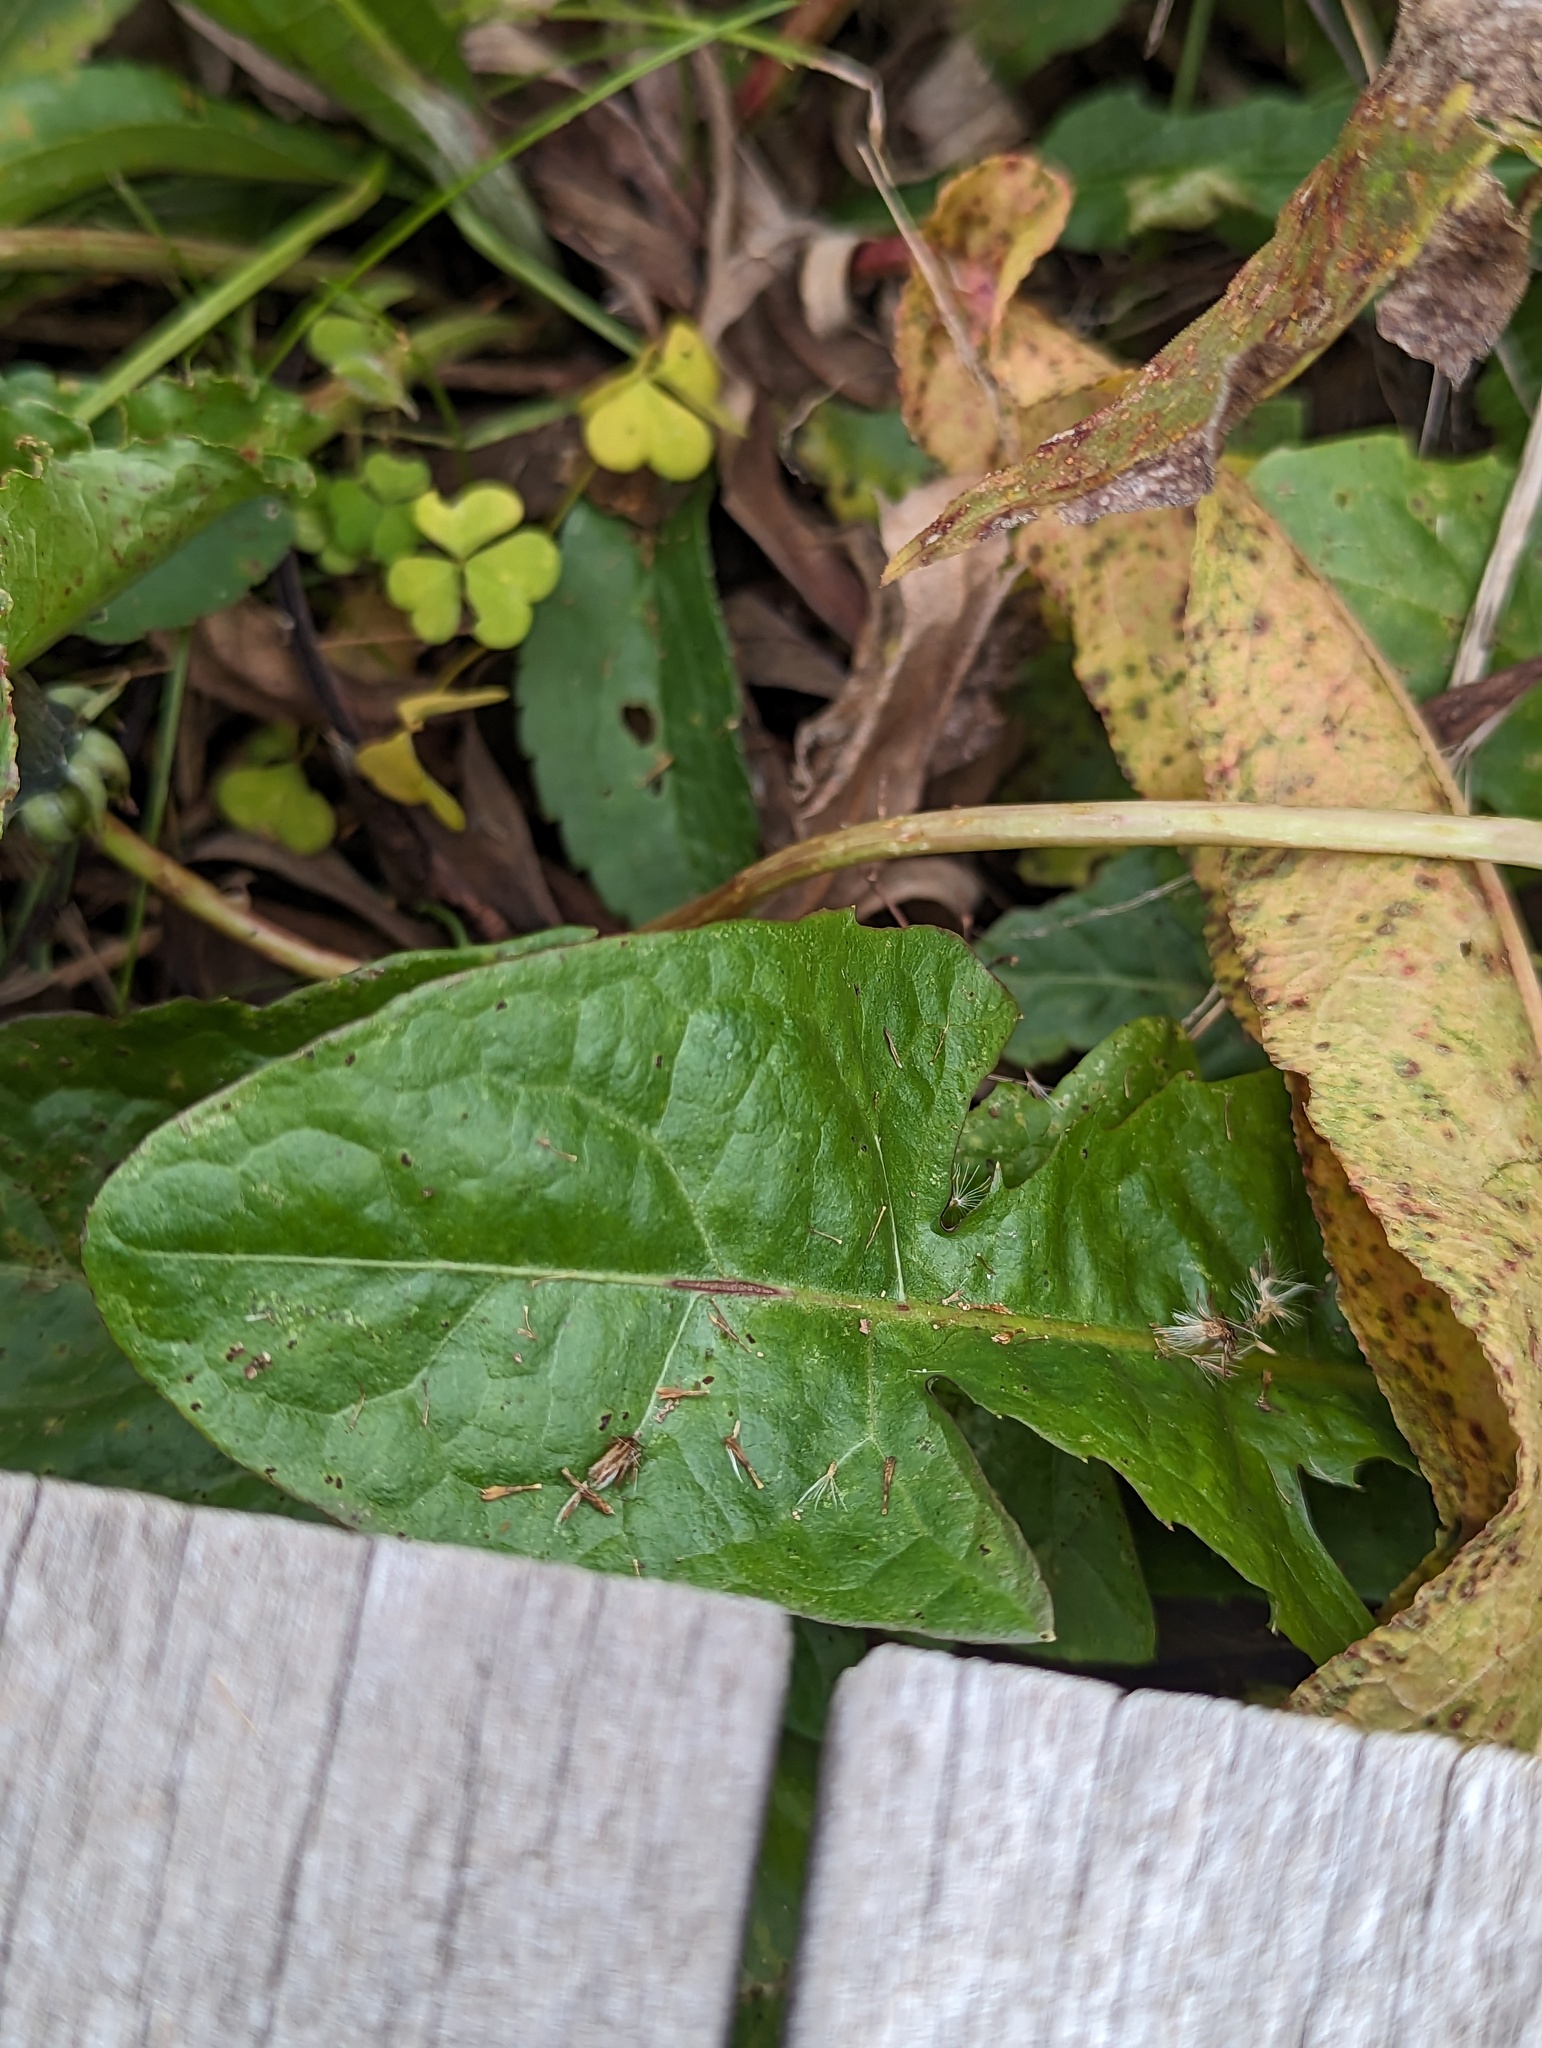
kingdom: Plantae
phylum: Tracheophyta
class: Magnoliopsida
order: Asterales
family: Asteraceae
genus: Taraxacum
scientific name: Taraxacum
